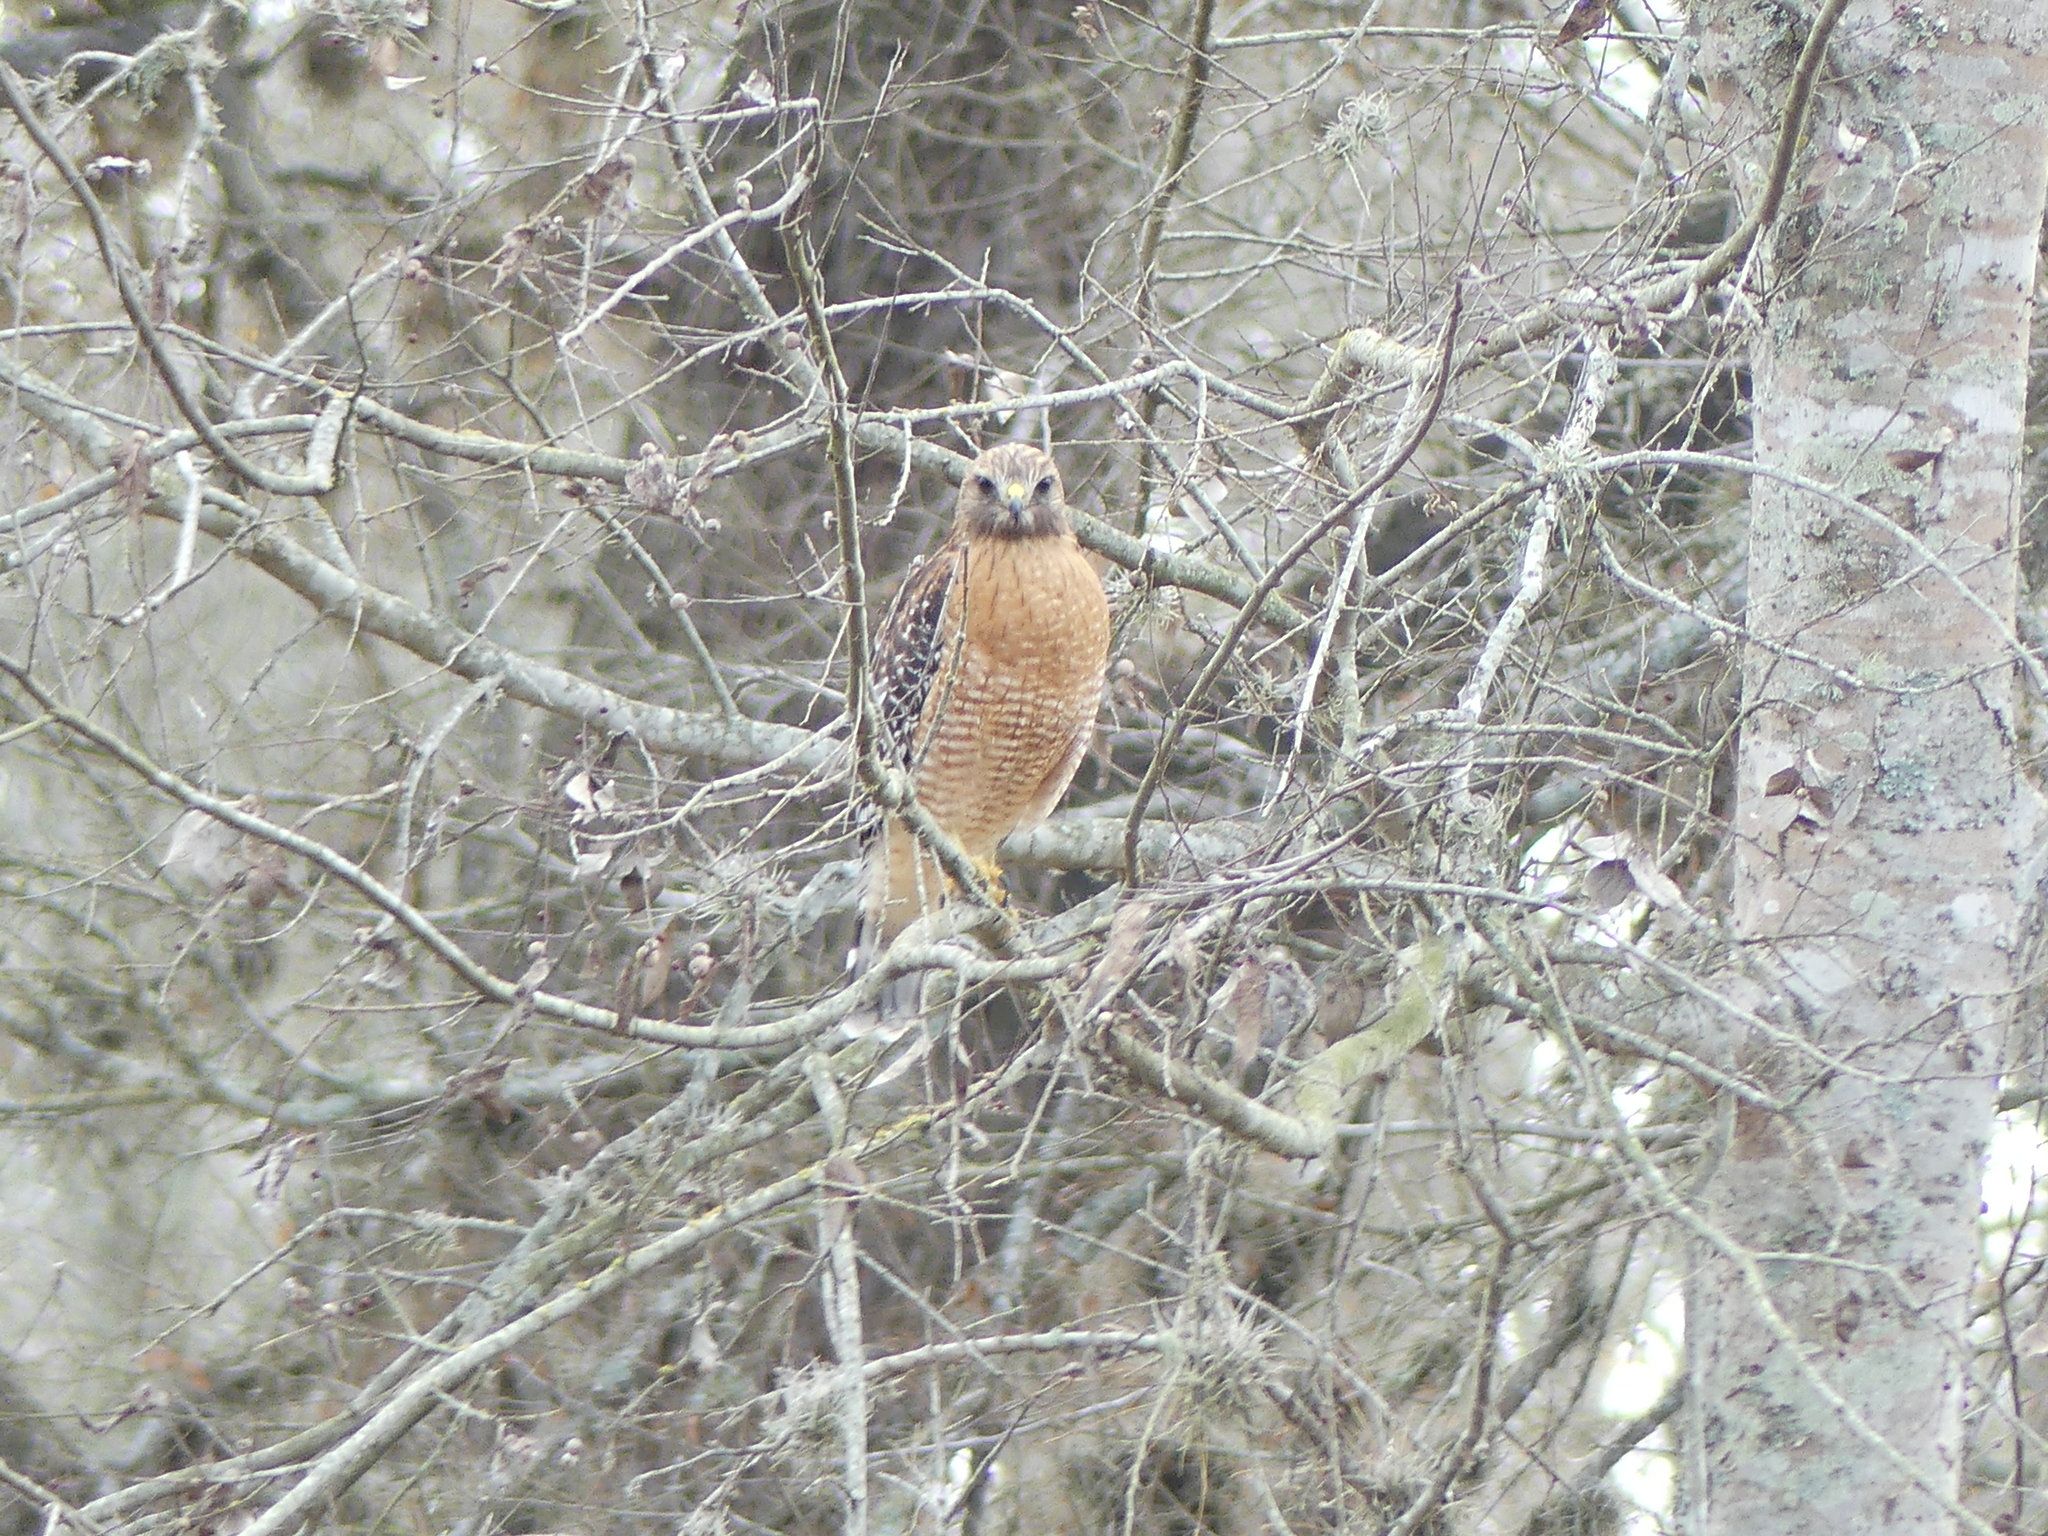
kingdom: Animalia
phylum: Chordata
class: Aves
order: Accipitriformes
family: Accipitridae
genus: Buteo
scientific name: Buteo lineatus
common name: Red-shouldered hawk
